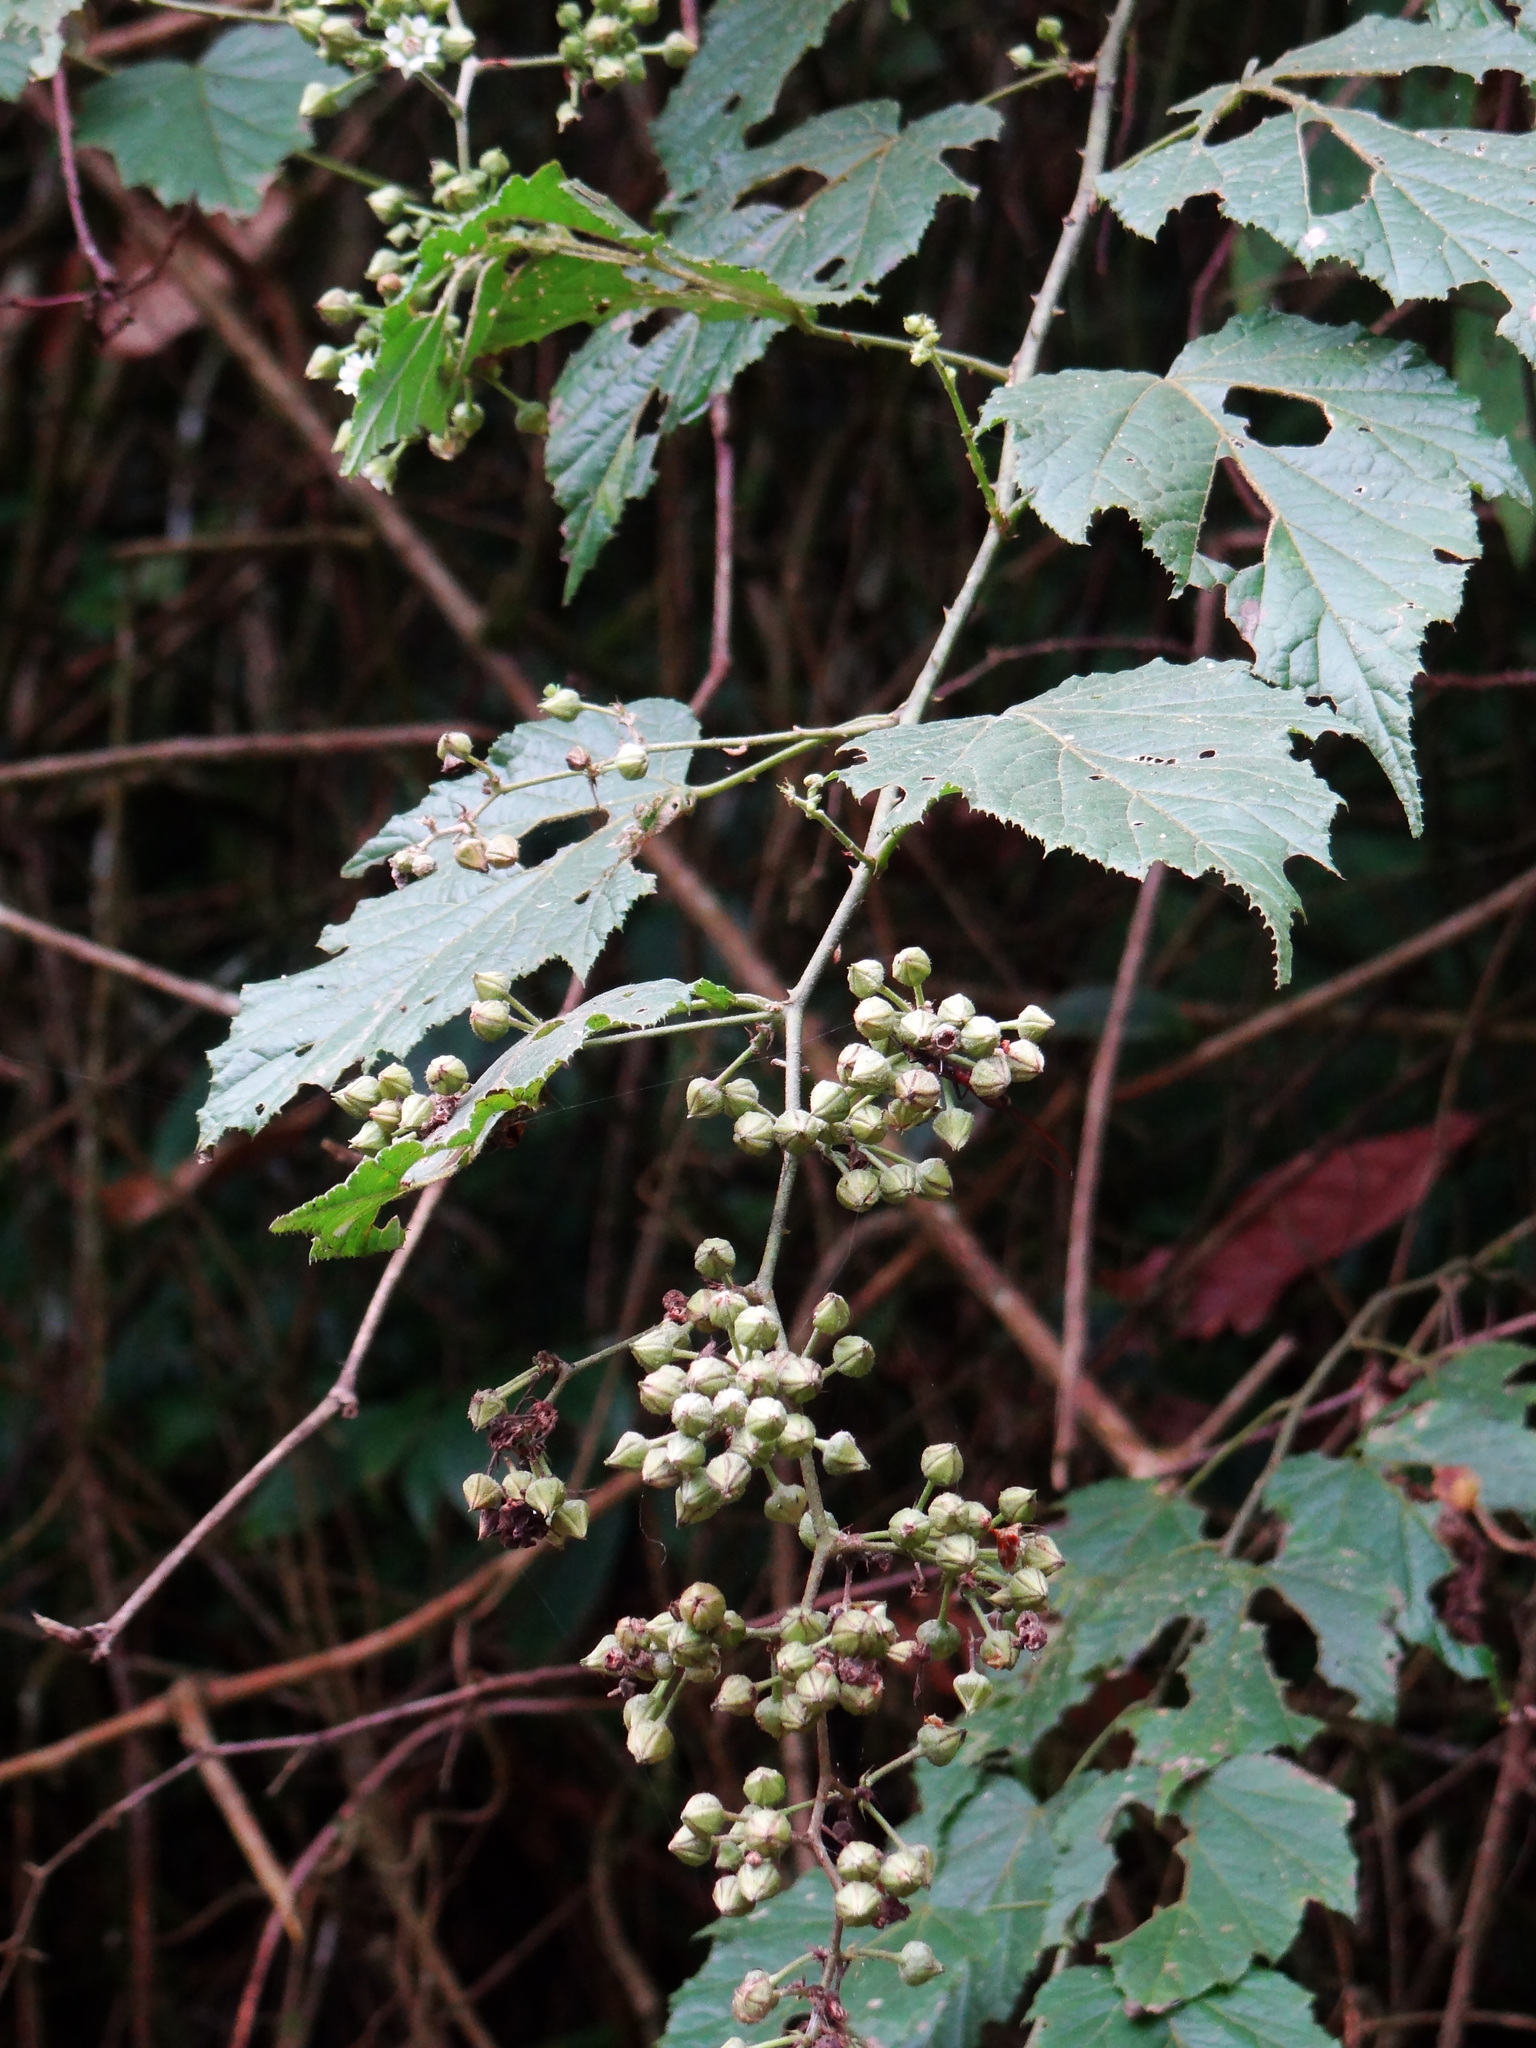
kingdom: Plantae
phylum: Tracheophyta
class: Magnoliopsida
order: Rosales
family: Rosaceae
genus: Rubus
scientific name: Rubus lambertianus
